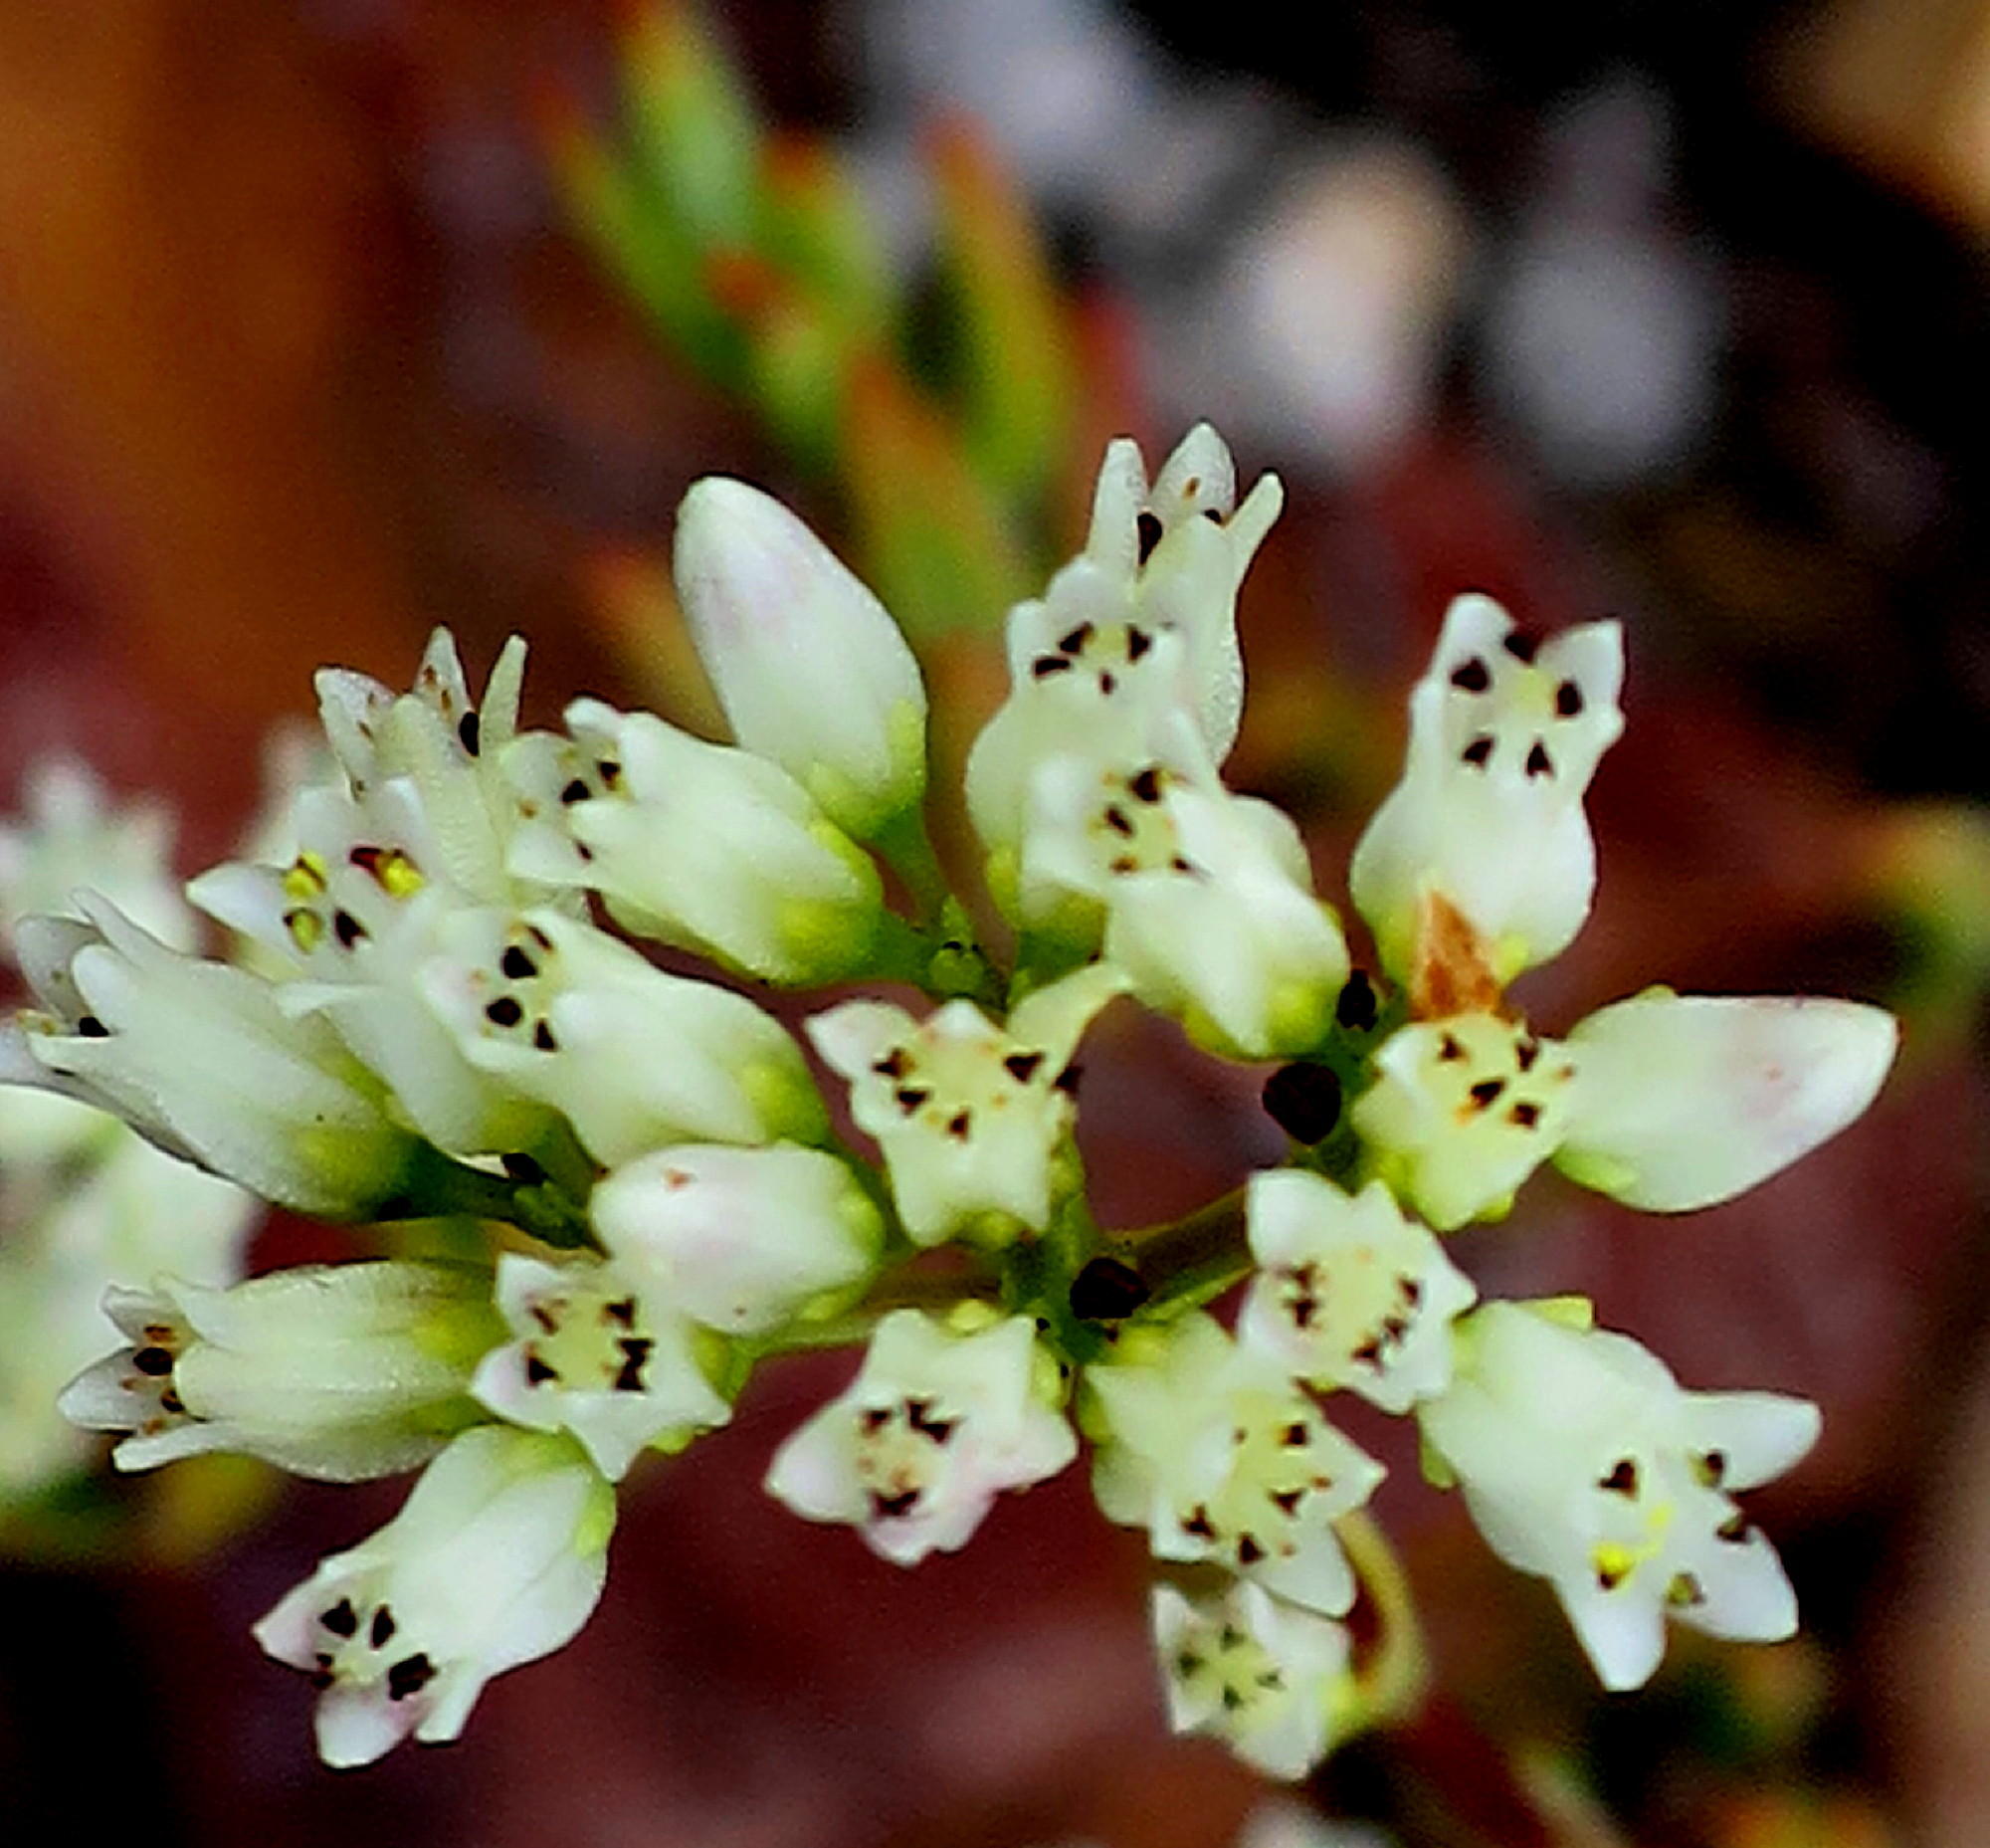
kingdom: Plantae
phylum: Tracheophyta
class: Magnoliopsida
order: Saxifragales
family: Crassulaceae
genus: Crassula
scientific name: Crassula biplanata
